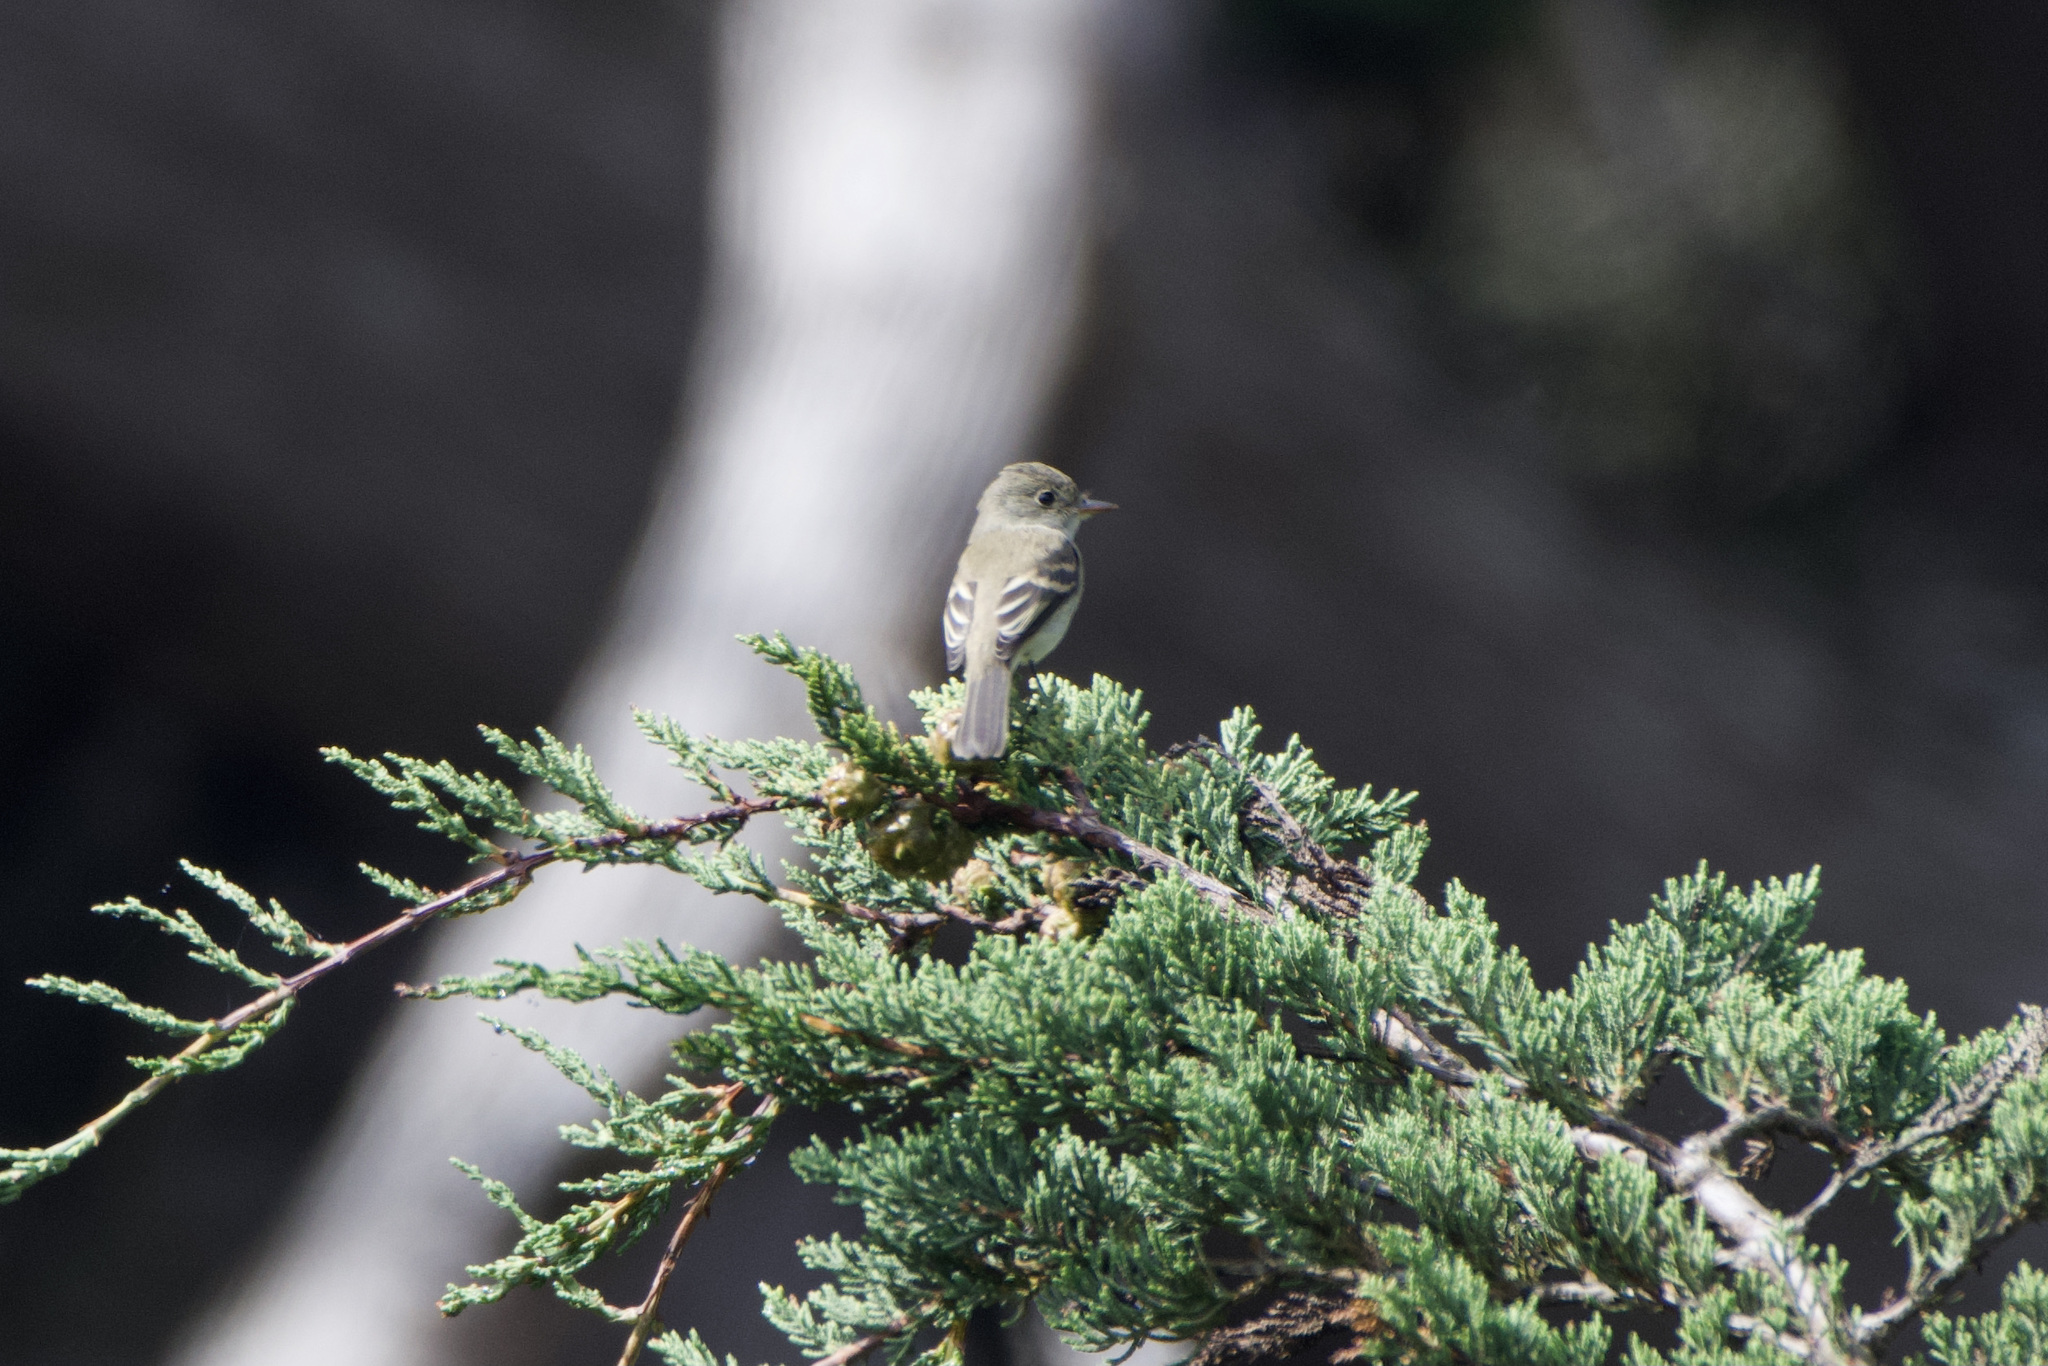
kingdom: Animalia
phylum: Chordata
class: Aves
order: Passeriformes
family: Tyrannidae
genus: Empidonax
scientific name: Empidonax difficilis
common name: Pacific-slope flycatcher
